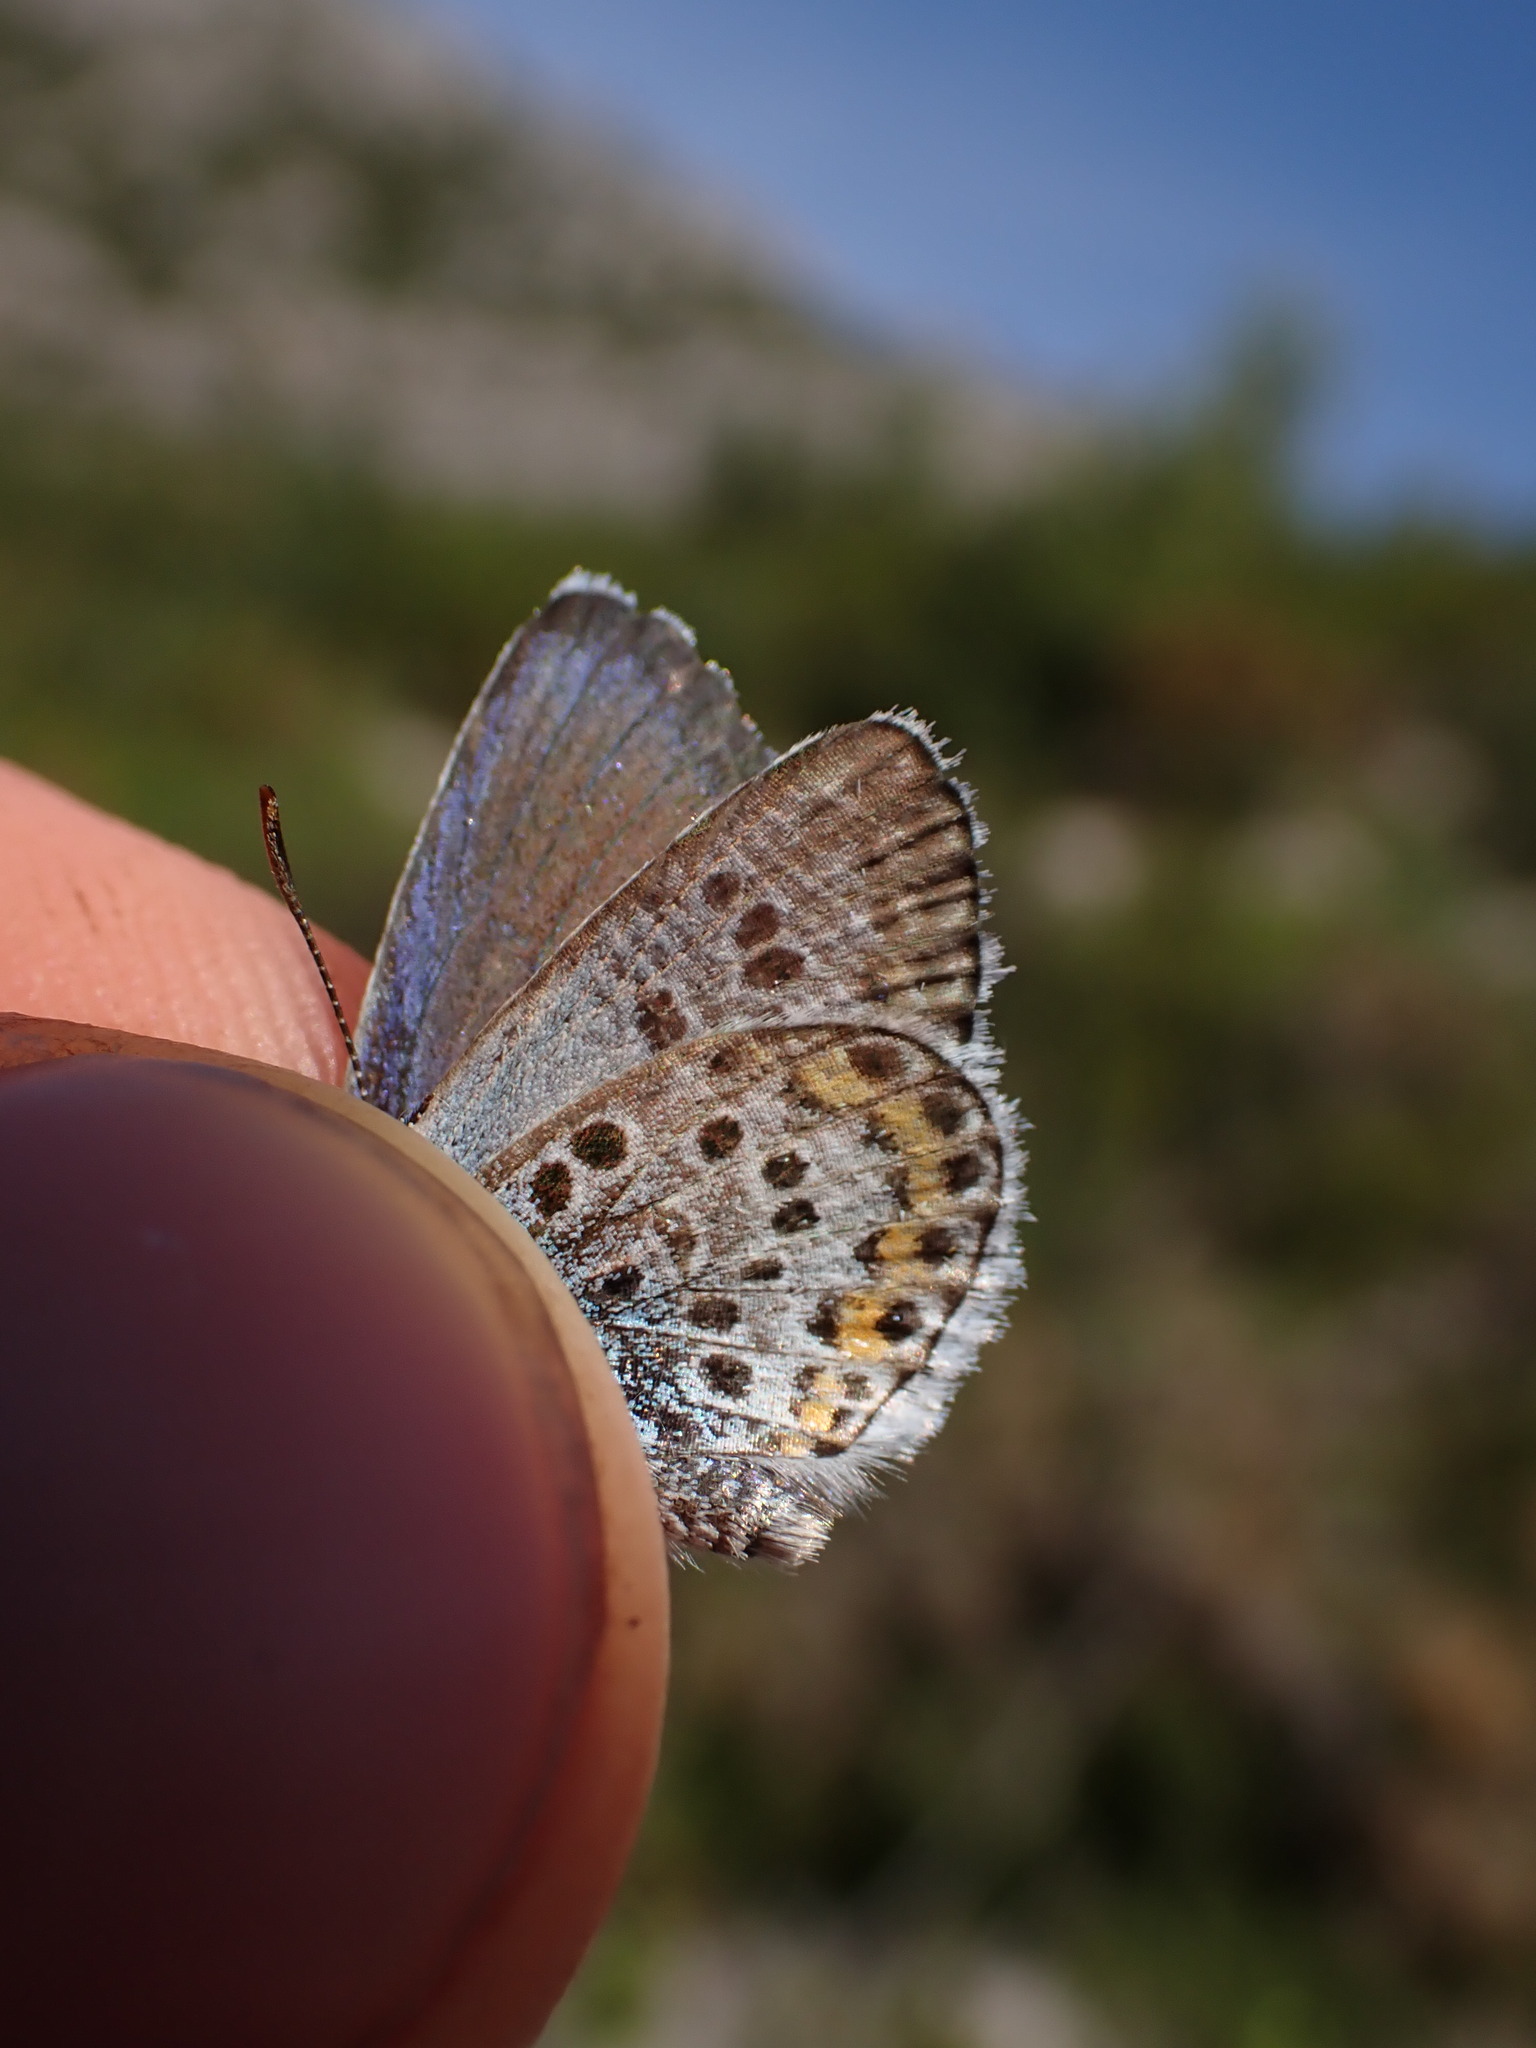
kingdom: Animalia
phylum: Arthropoda
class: Insecta
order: Lepidoptera
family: Lycaenidae
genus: Plebejus
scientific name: Plebejus argus
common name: Silver-studded blue
